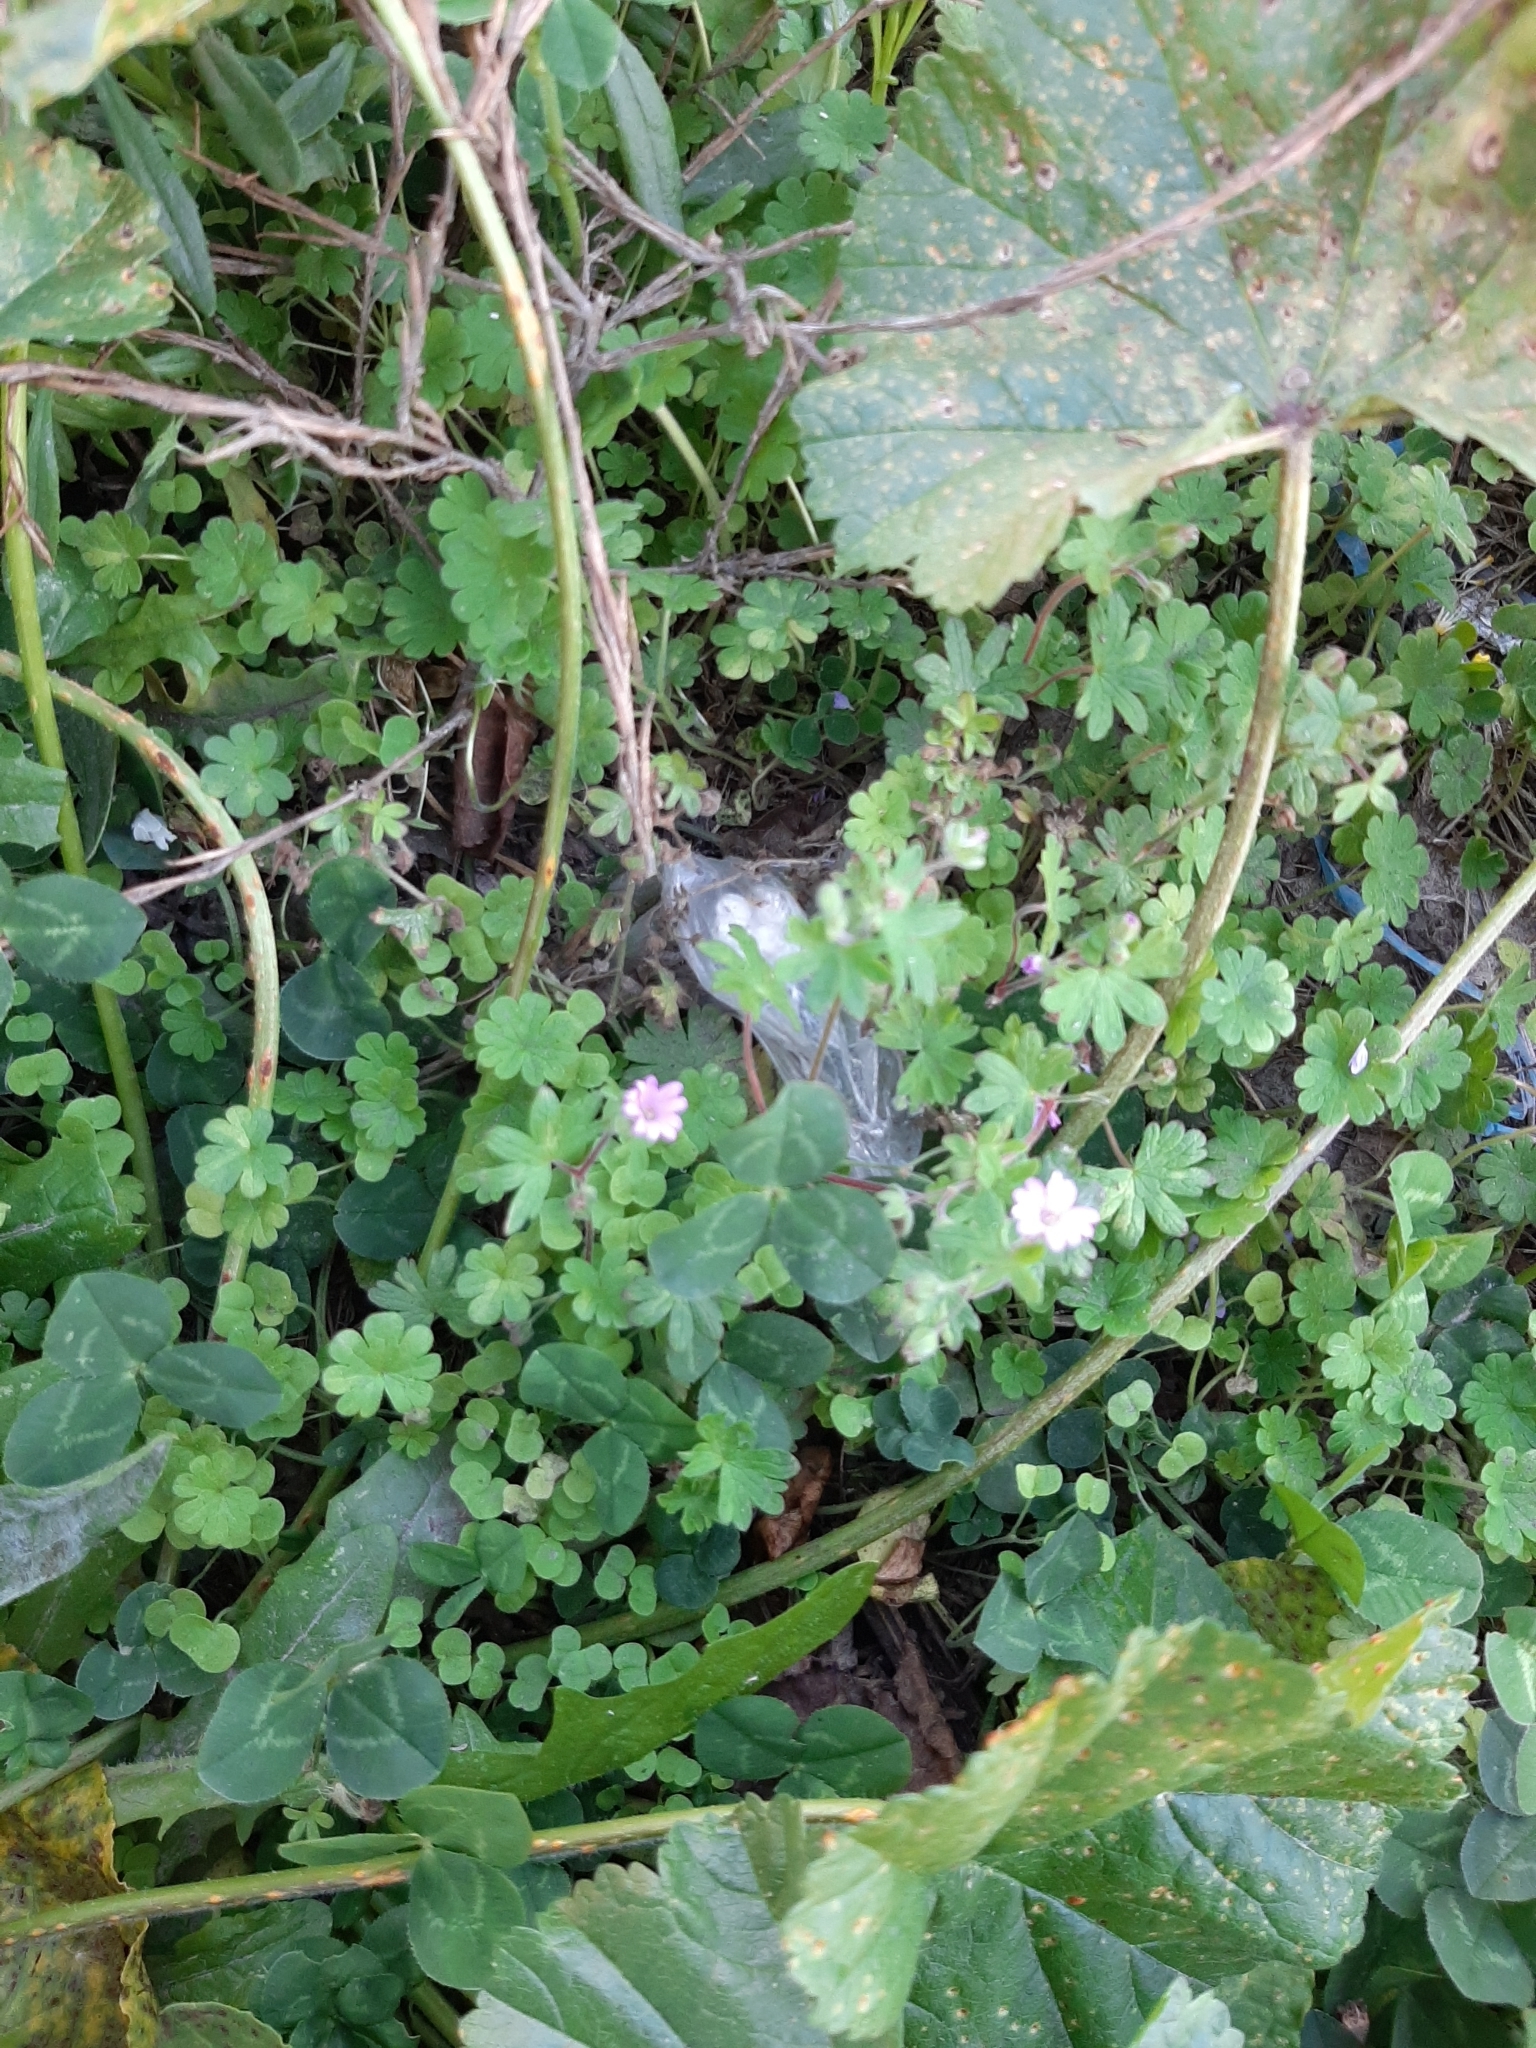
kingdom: Plantae
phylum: Tracheophyta
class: Magnoliopsida
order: Geraniales
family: Geraniaceae
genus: Geranium
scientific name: Geranium molle
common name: Dove's-foot crane's-bill
